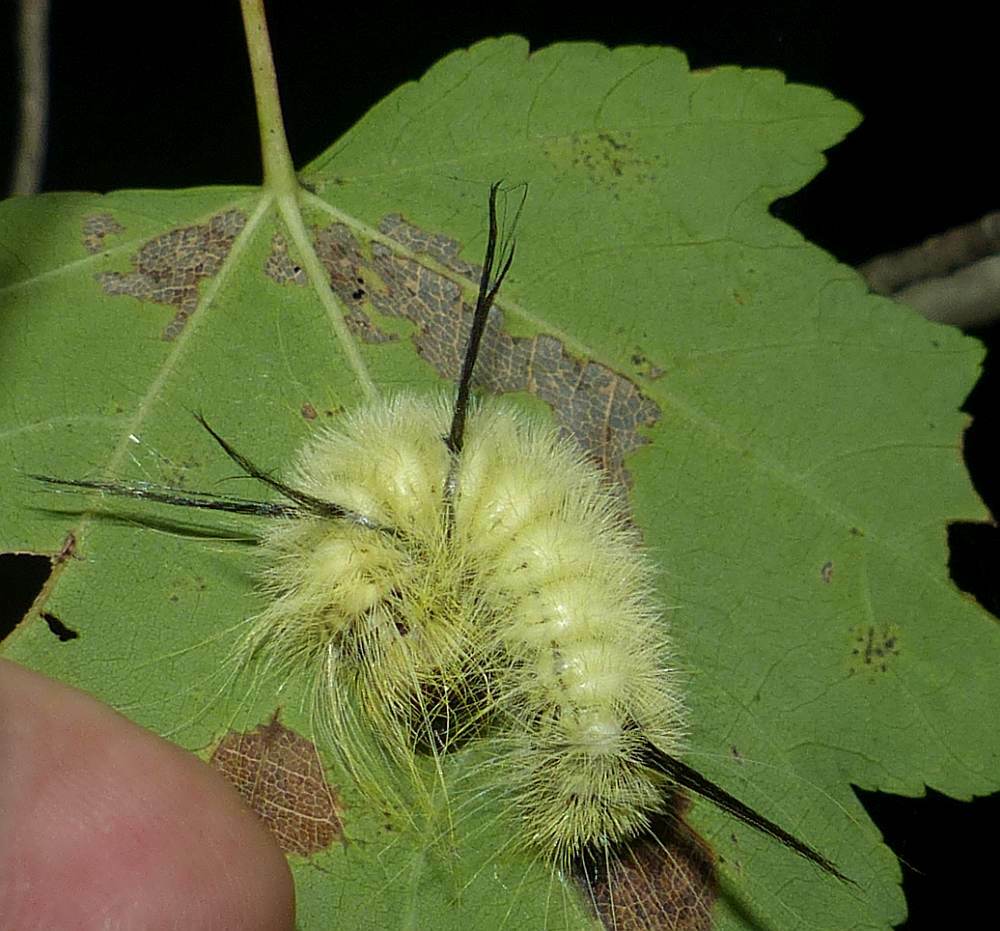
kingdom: Animalia
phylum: Arthropoda
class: Insecta
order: Lepidoptera
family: Noctuidae
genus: Acronicta
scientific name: Acronicta americana
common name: American dagger
